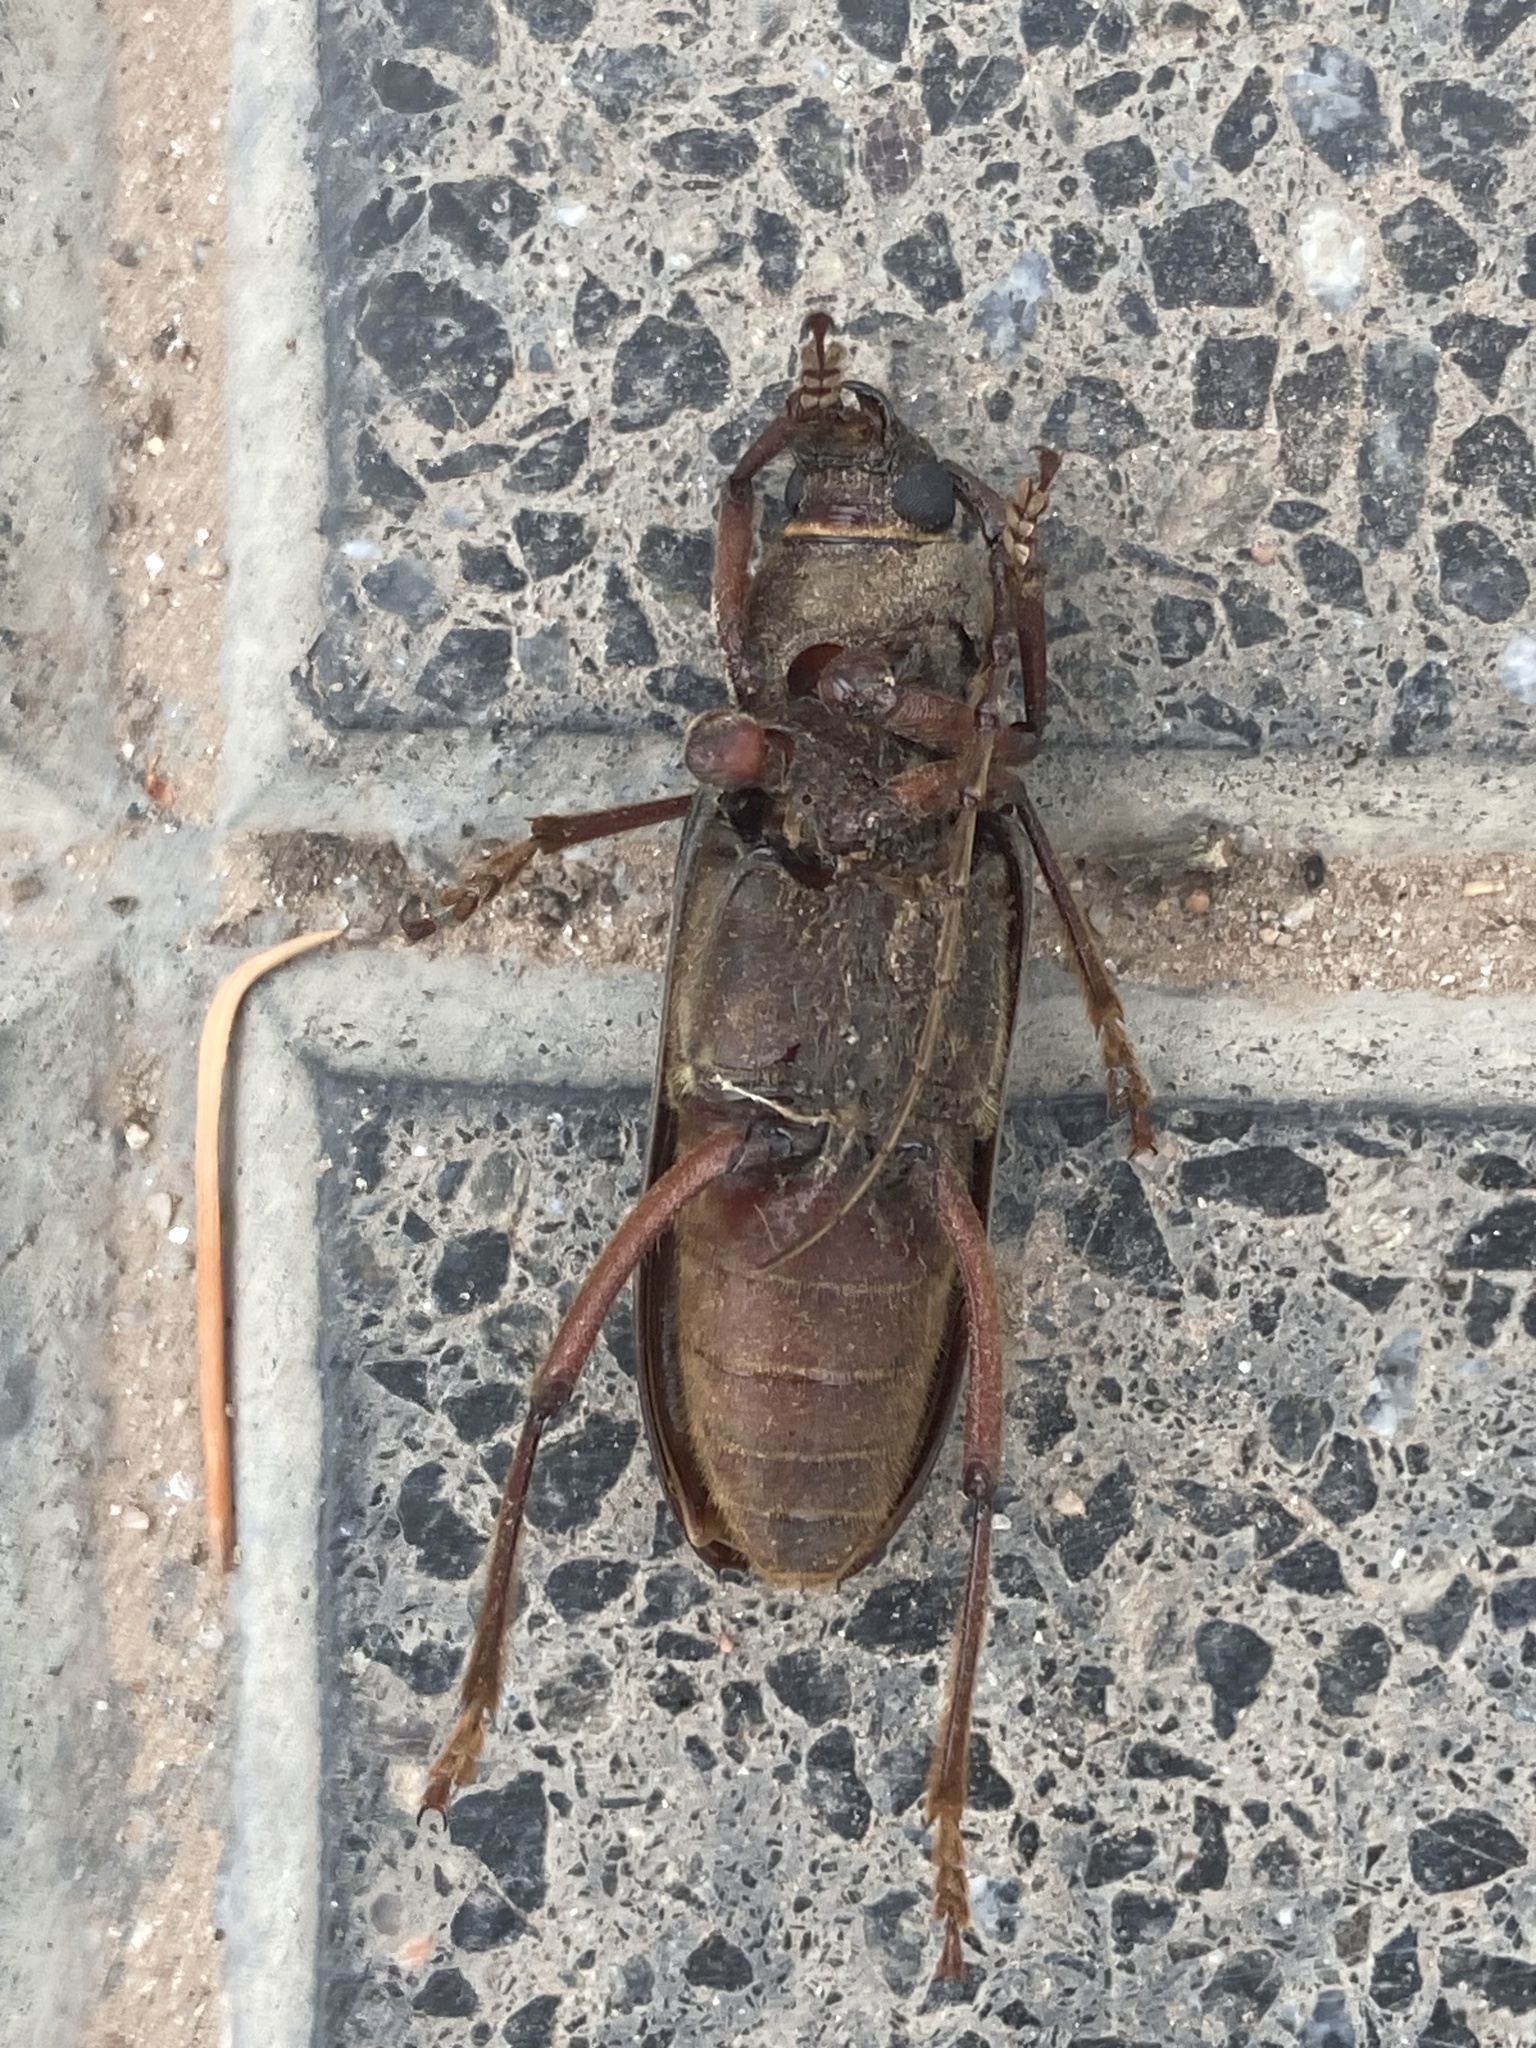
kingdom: Animalia
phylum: Arthropoda
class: Insecta
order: Coleoptera
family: Cerambycidae
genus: Orion
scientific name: Orion maurus
